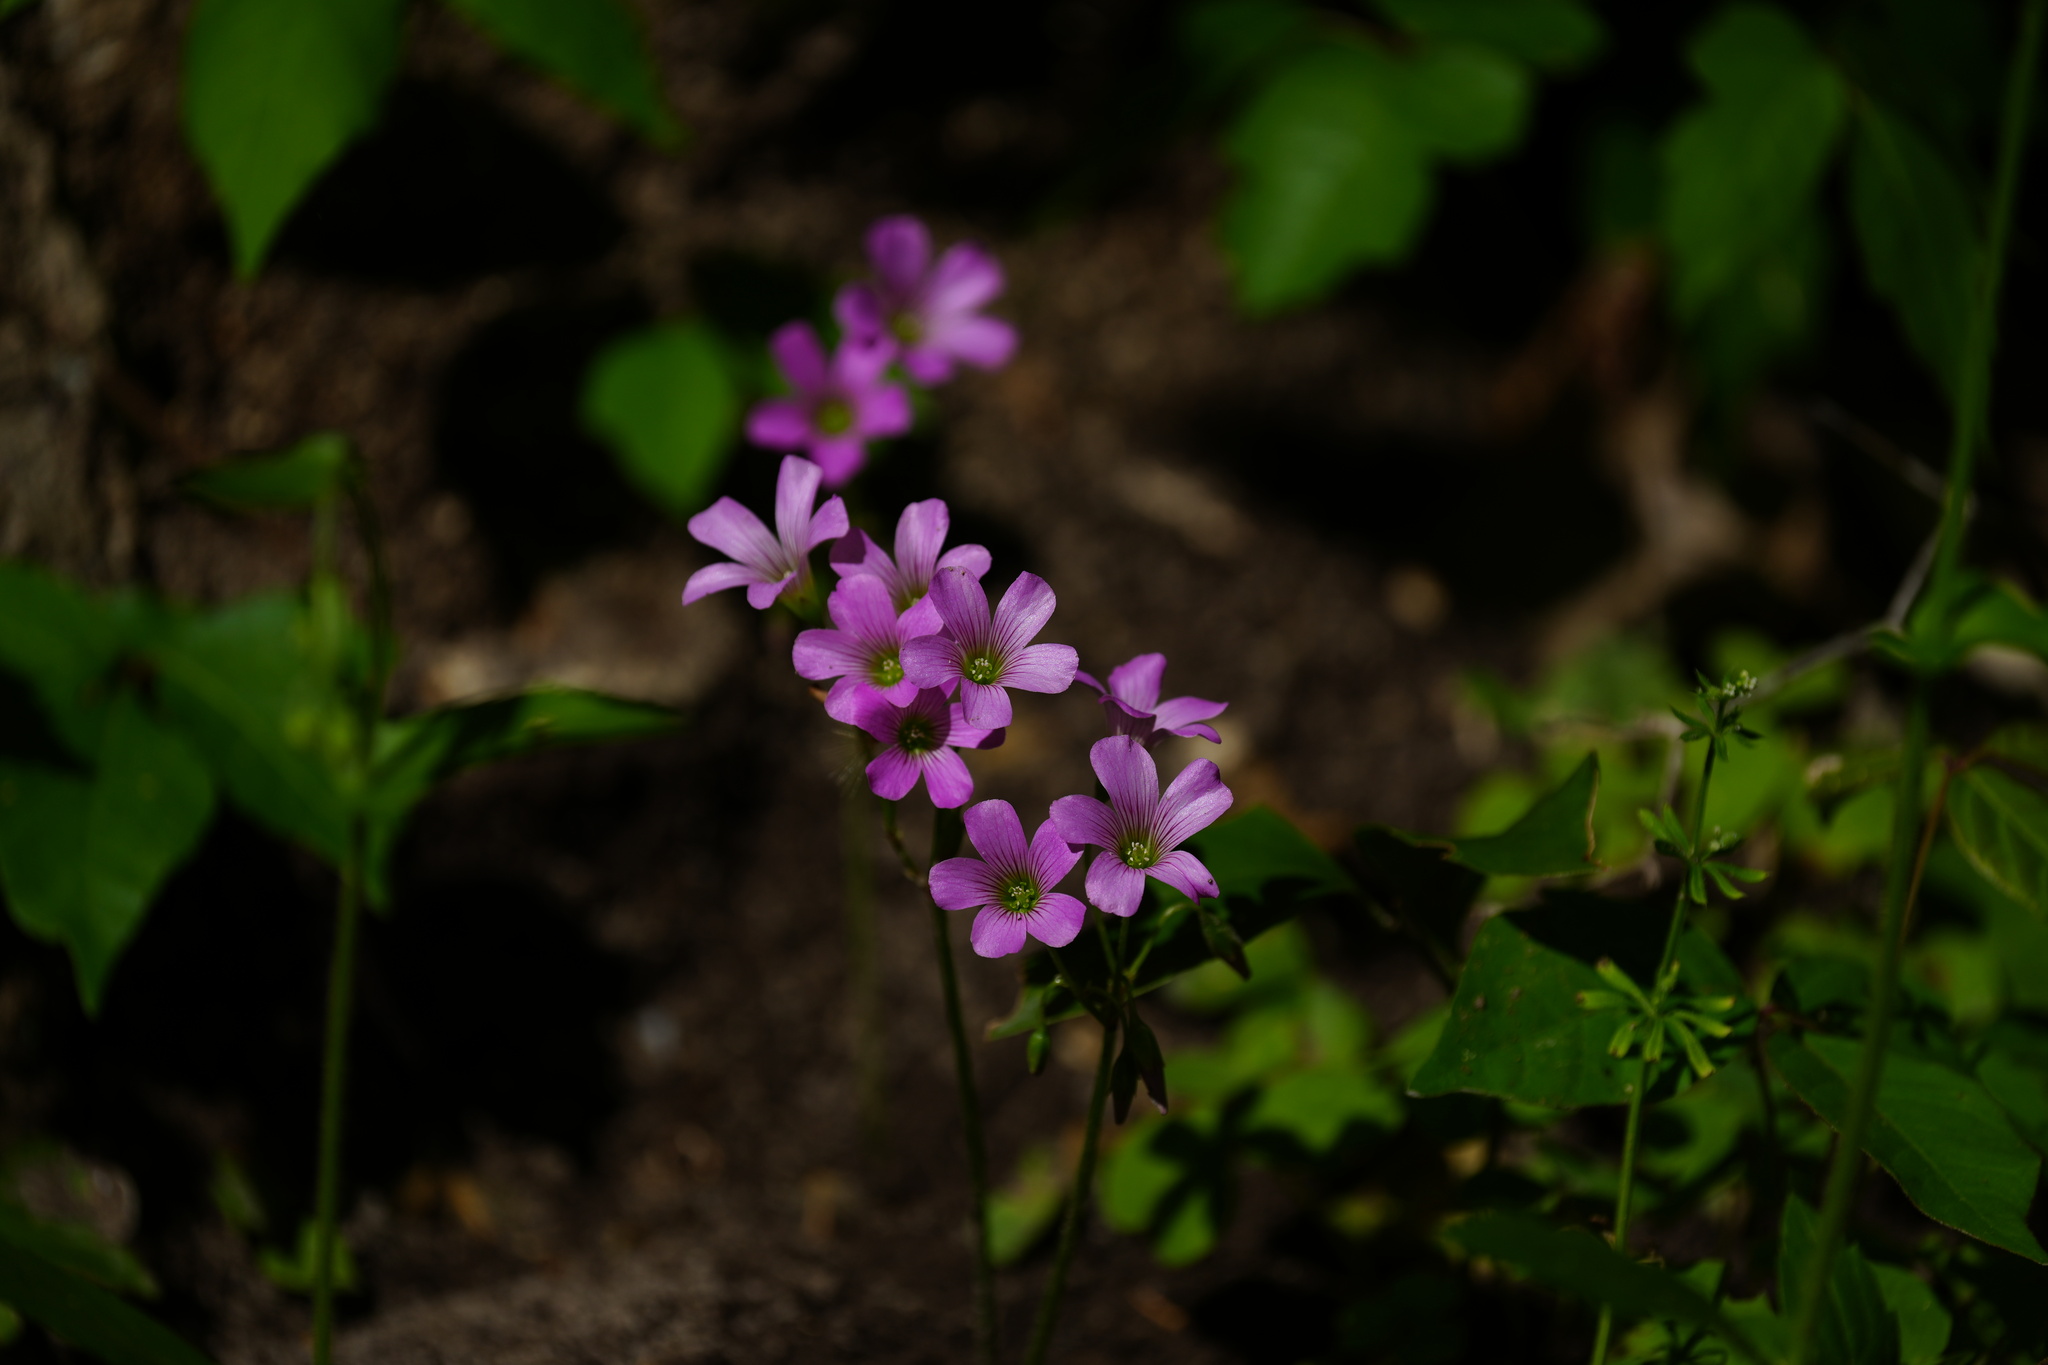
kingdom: Plantae
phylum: Tracheophyta
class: Magnoliopsida
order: Oxalidales
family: Oxalidaceae
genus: Oxalis
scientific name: Oxalis debilis
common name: Large-flowered pink-sorrel
